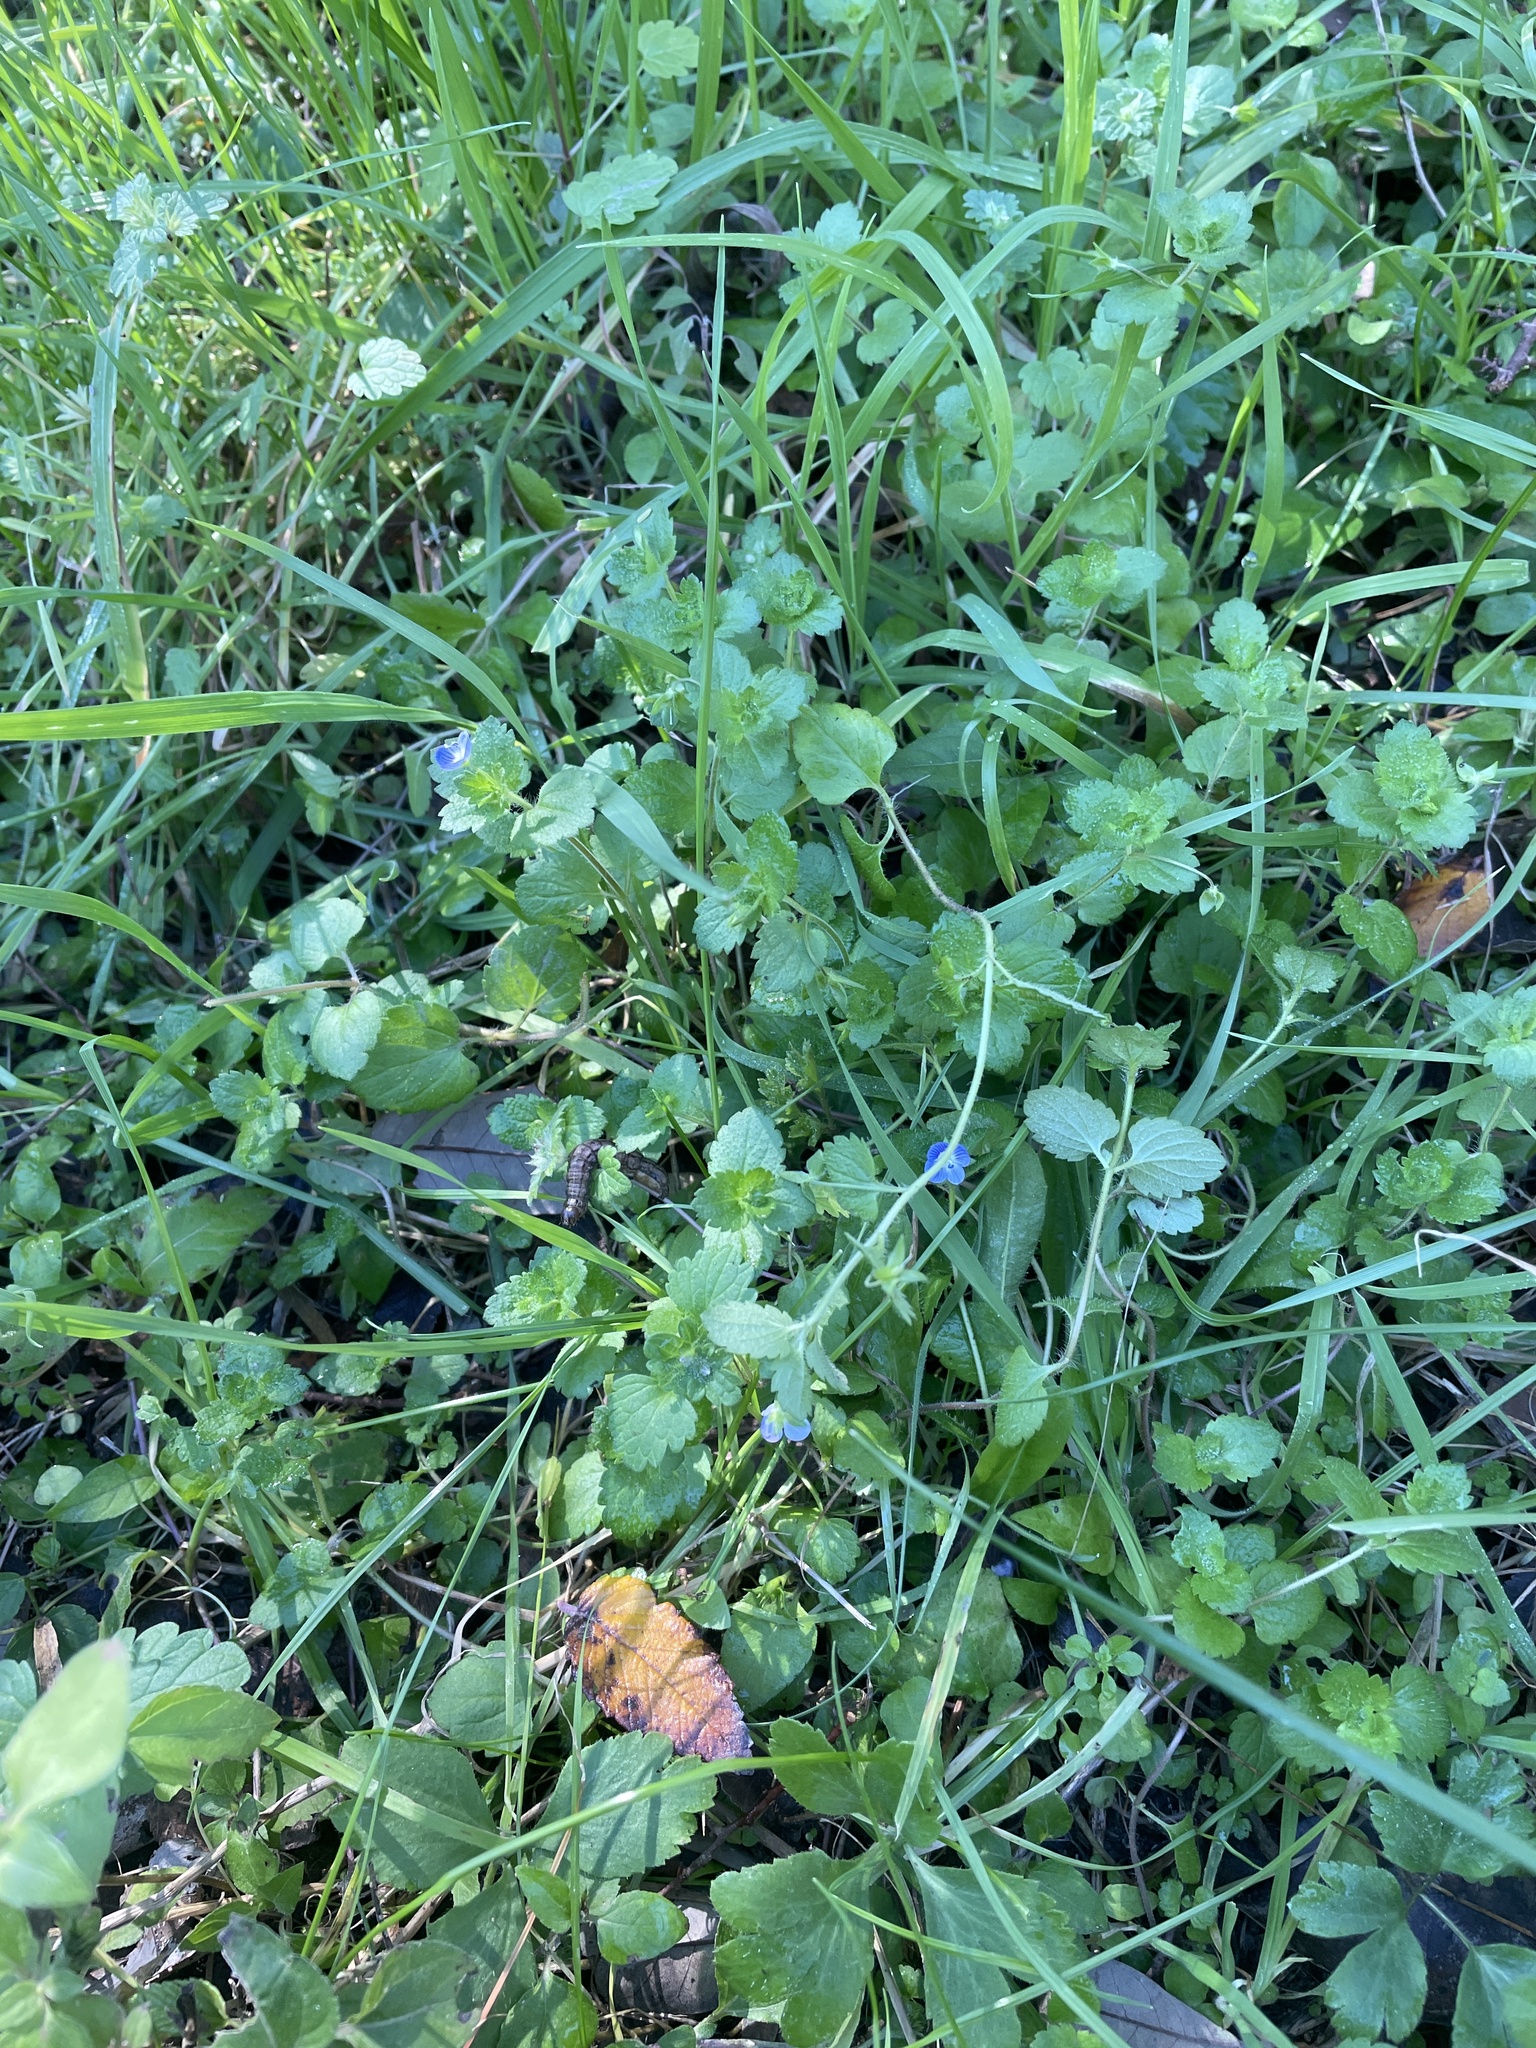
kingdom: Plantae
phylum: Tracheophyta
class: Magnoliopsida
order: Lamiales
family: Plantaginaceae
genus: Veronica
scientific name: Veronica persica
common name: Common field-speedwell
